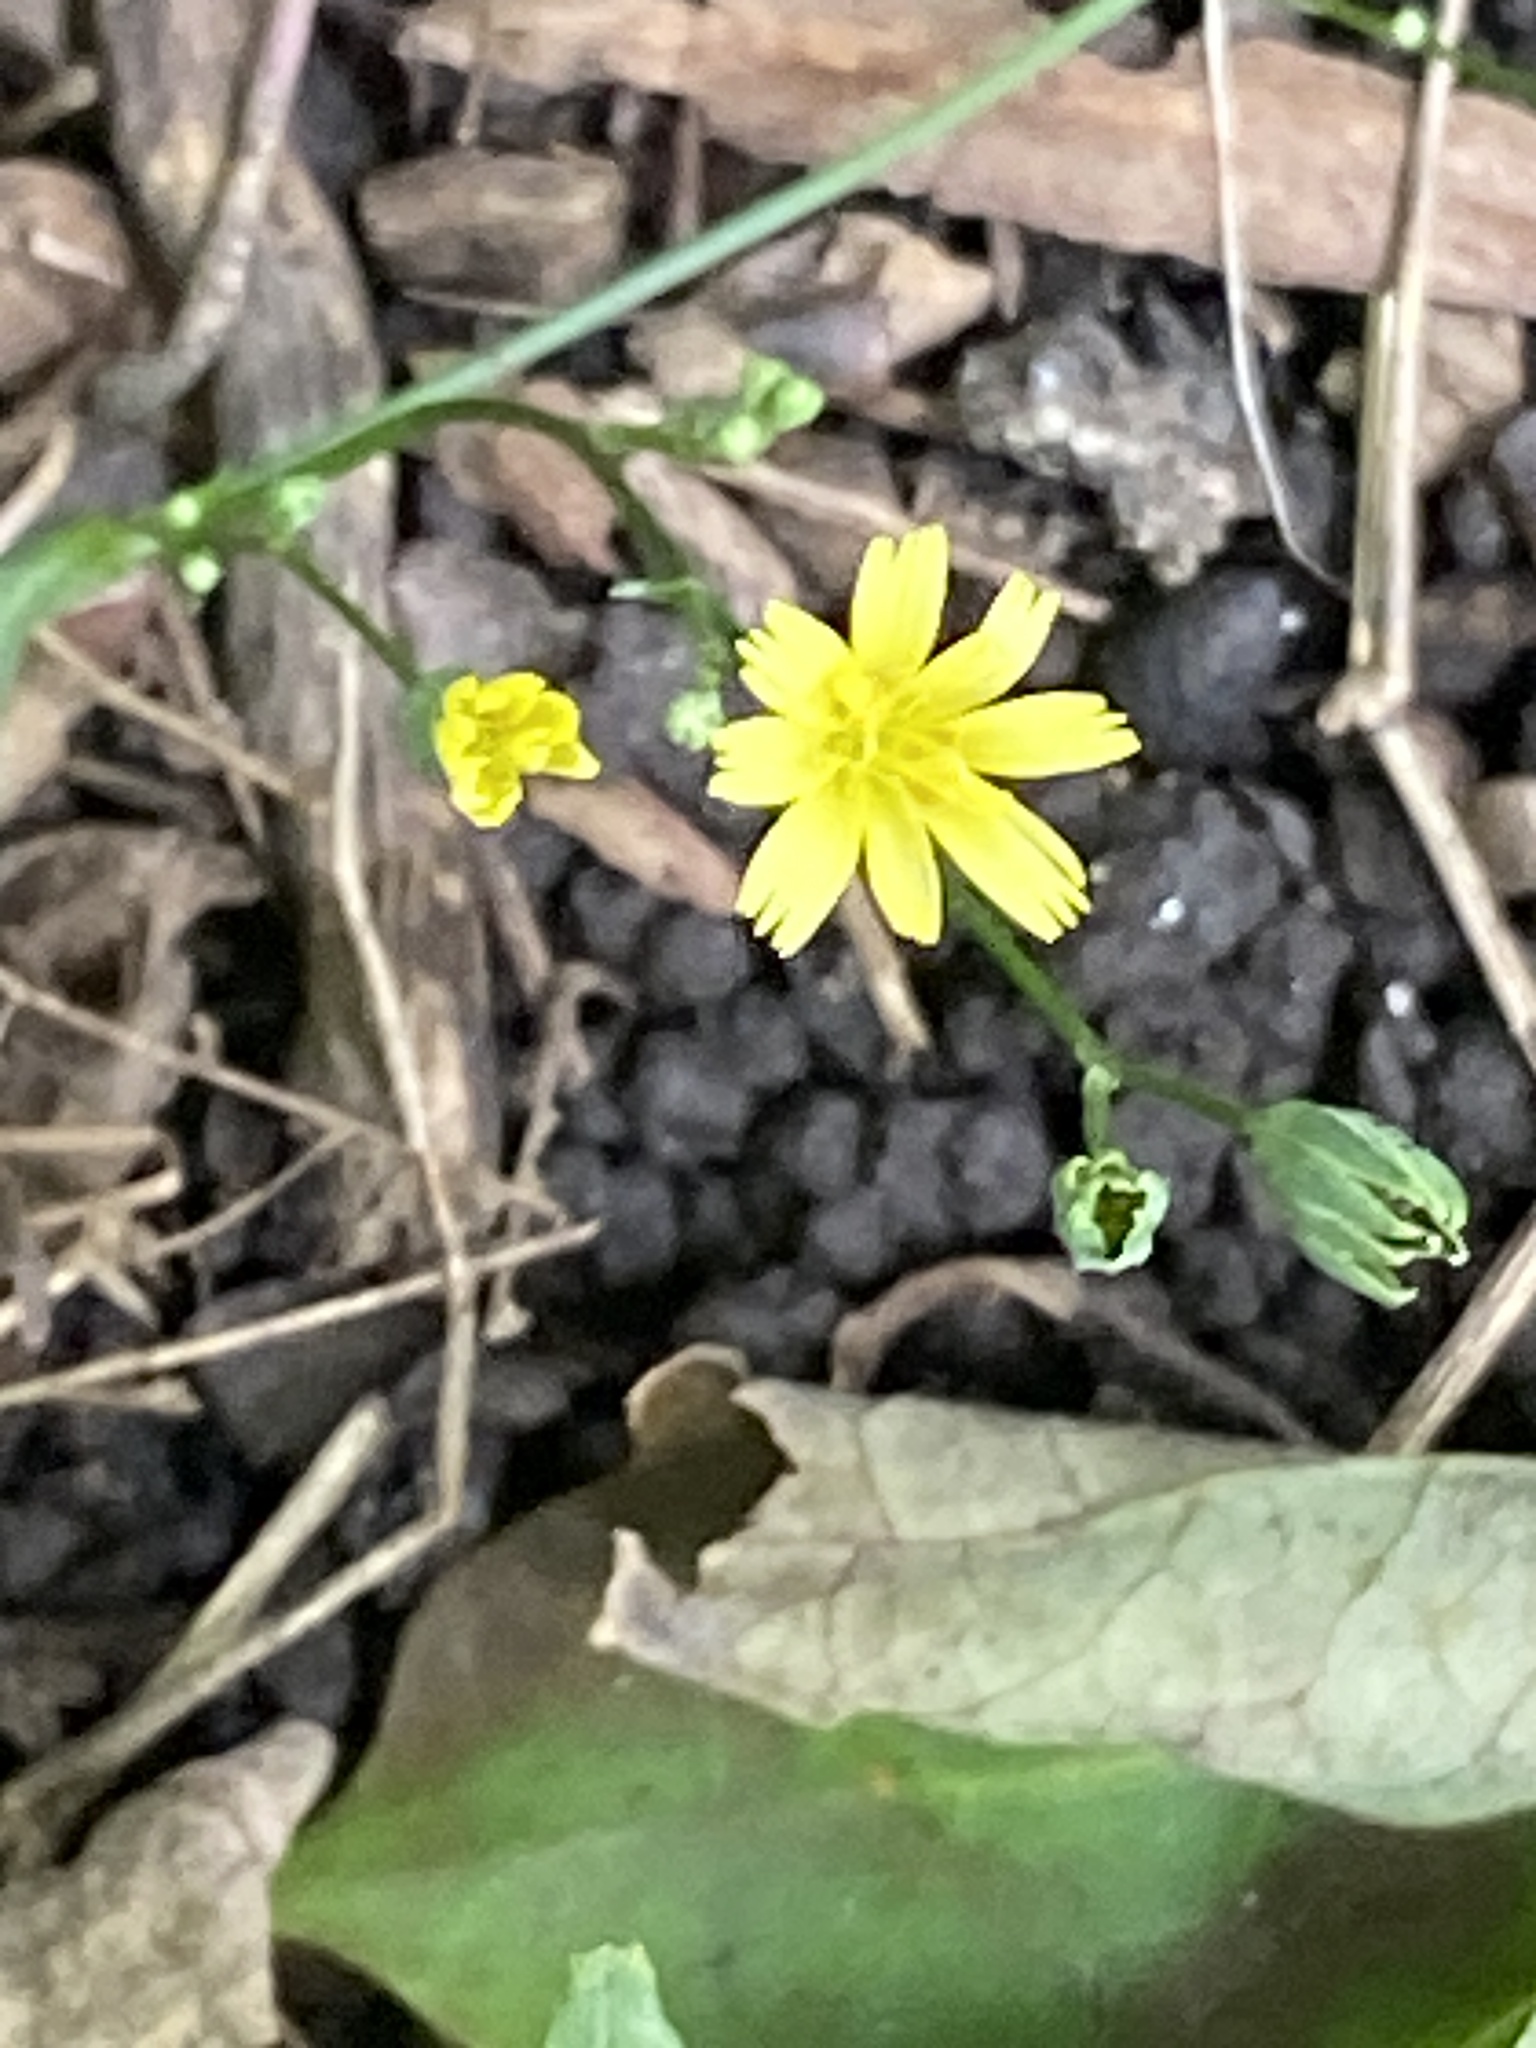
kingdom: Plantae
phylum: Tracheophyta
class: Magnoliopsida
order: Asterales
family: Asteraceae
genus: Lapsana
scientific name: Lapsana communis
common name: Nipplewort
